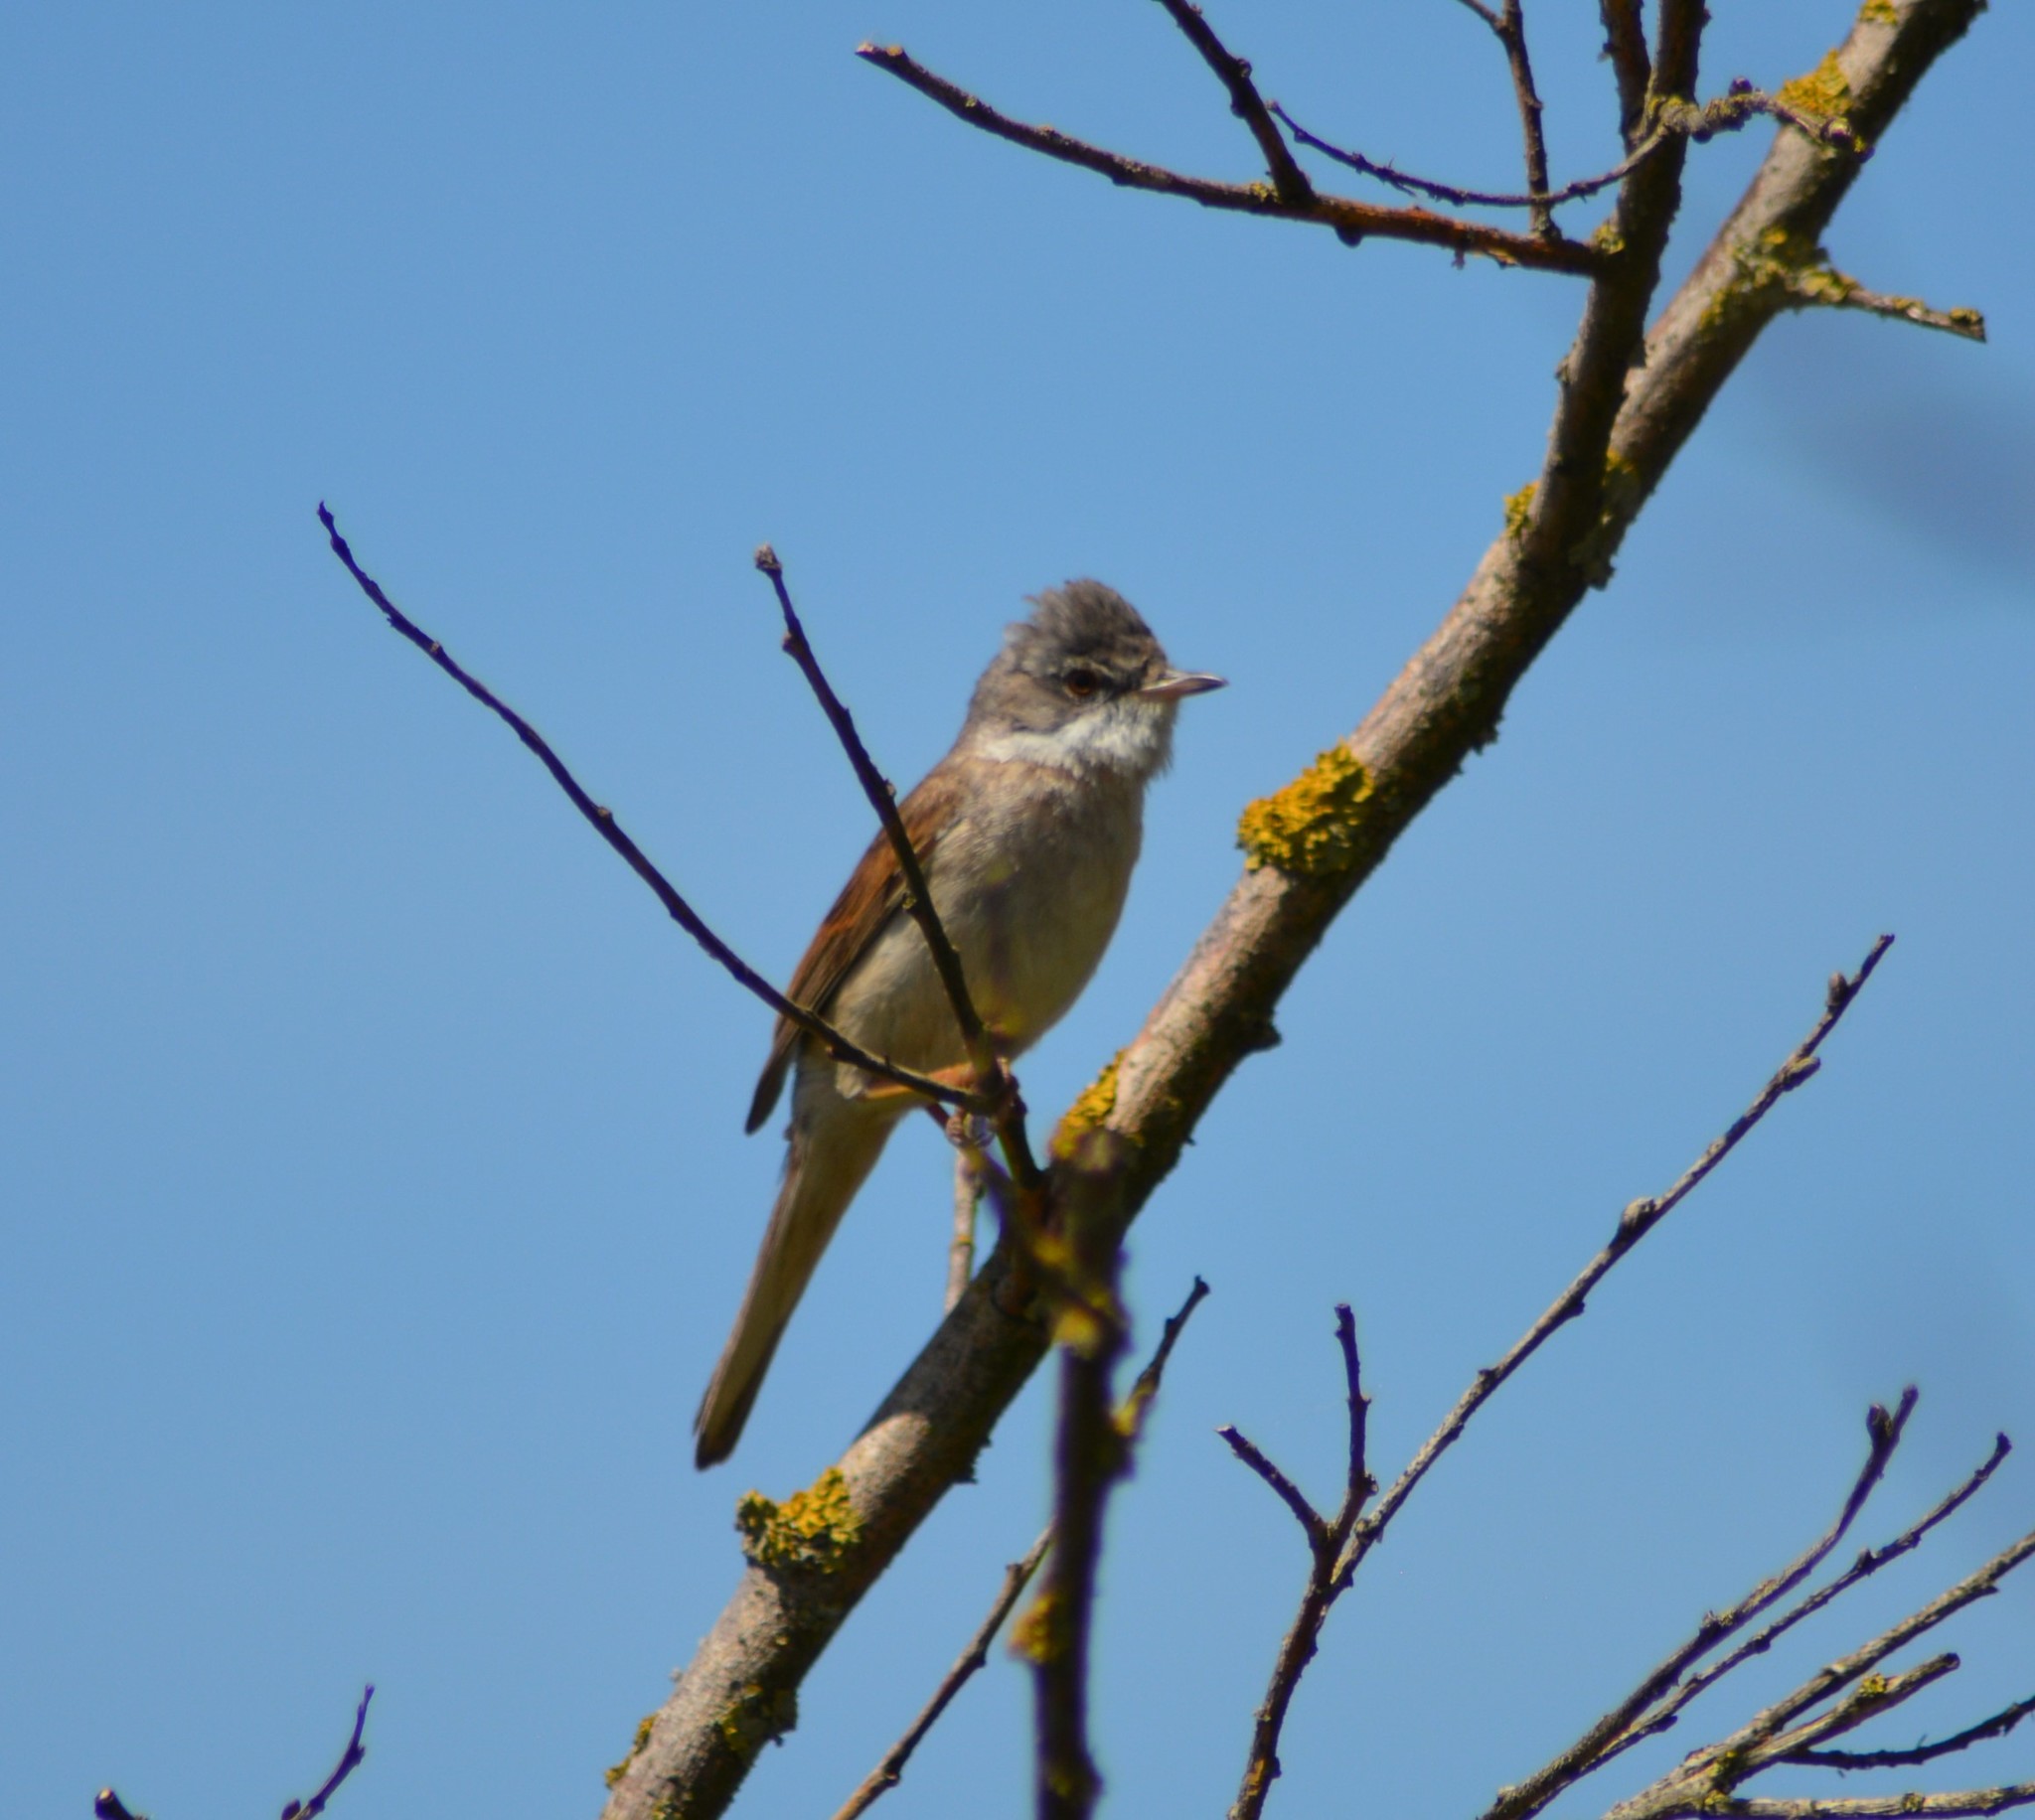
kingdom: Animalia
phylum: Chordata
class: Aves
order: Passeriformes
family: Sylviidae
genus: Sylvia
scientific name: Sylvia communis
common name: Common whitethroat
